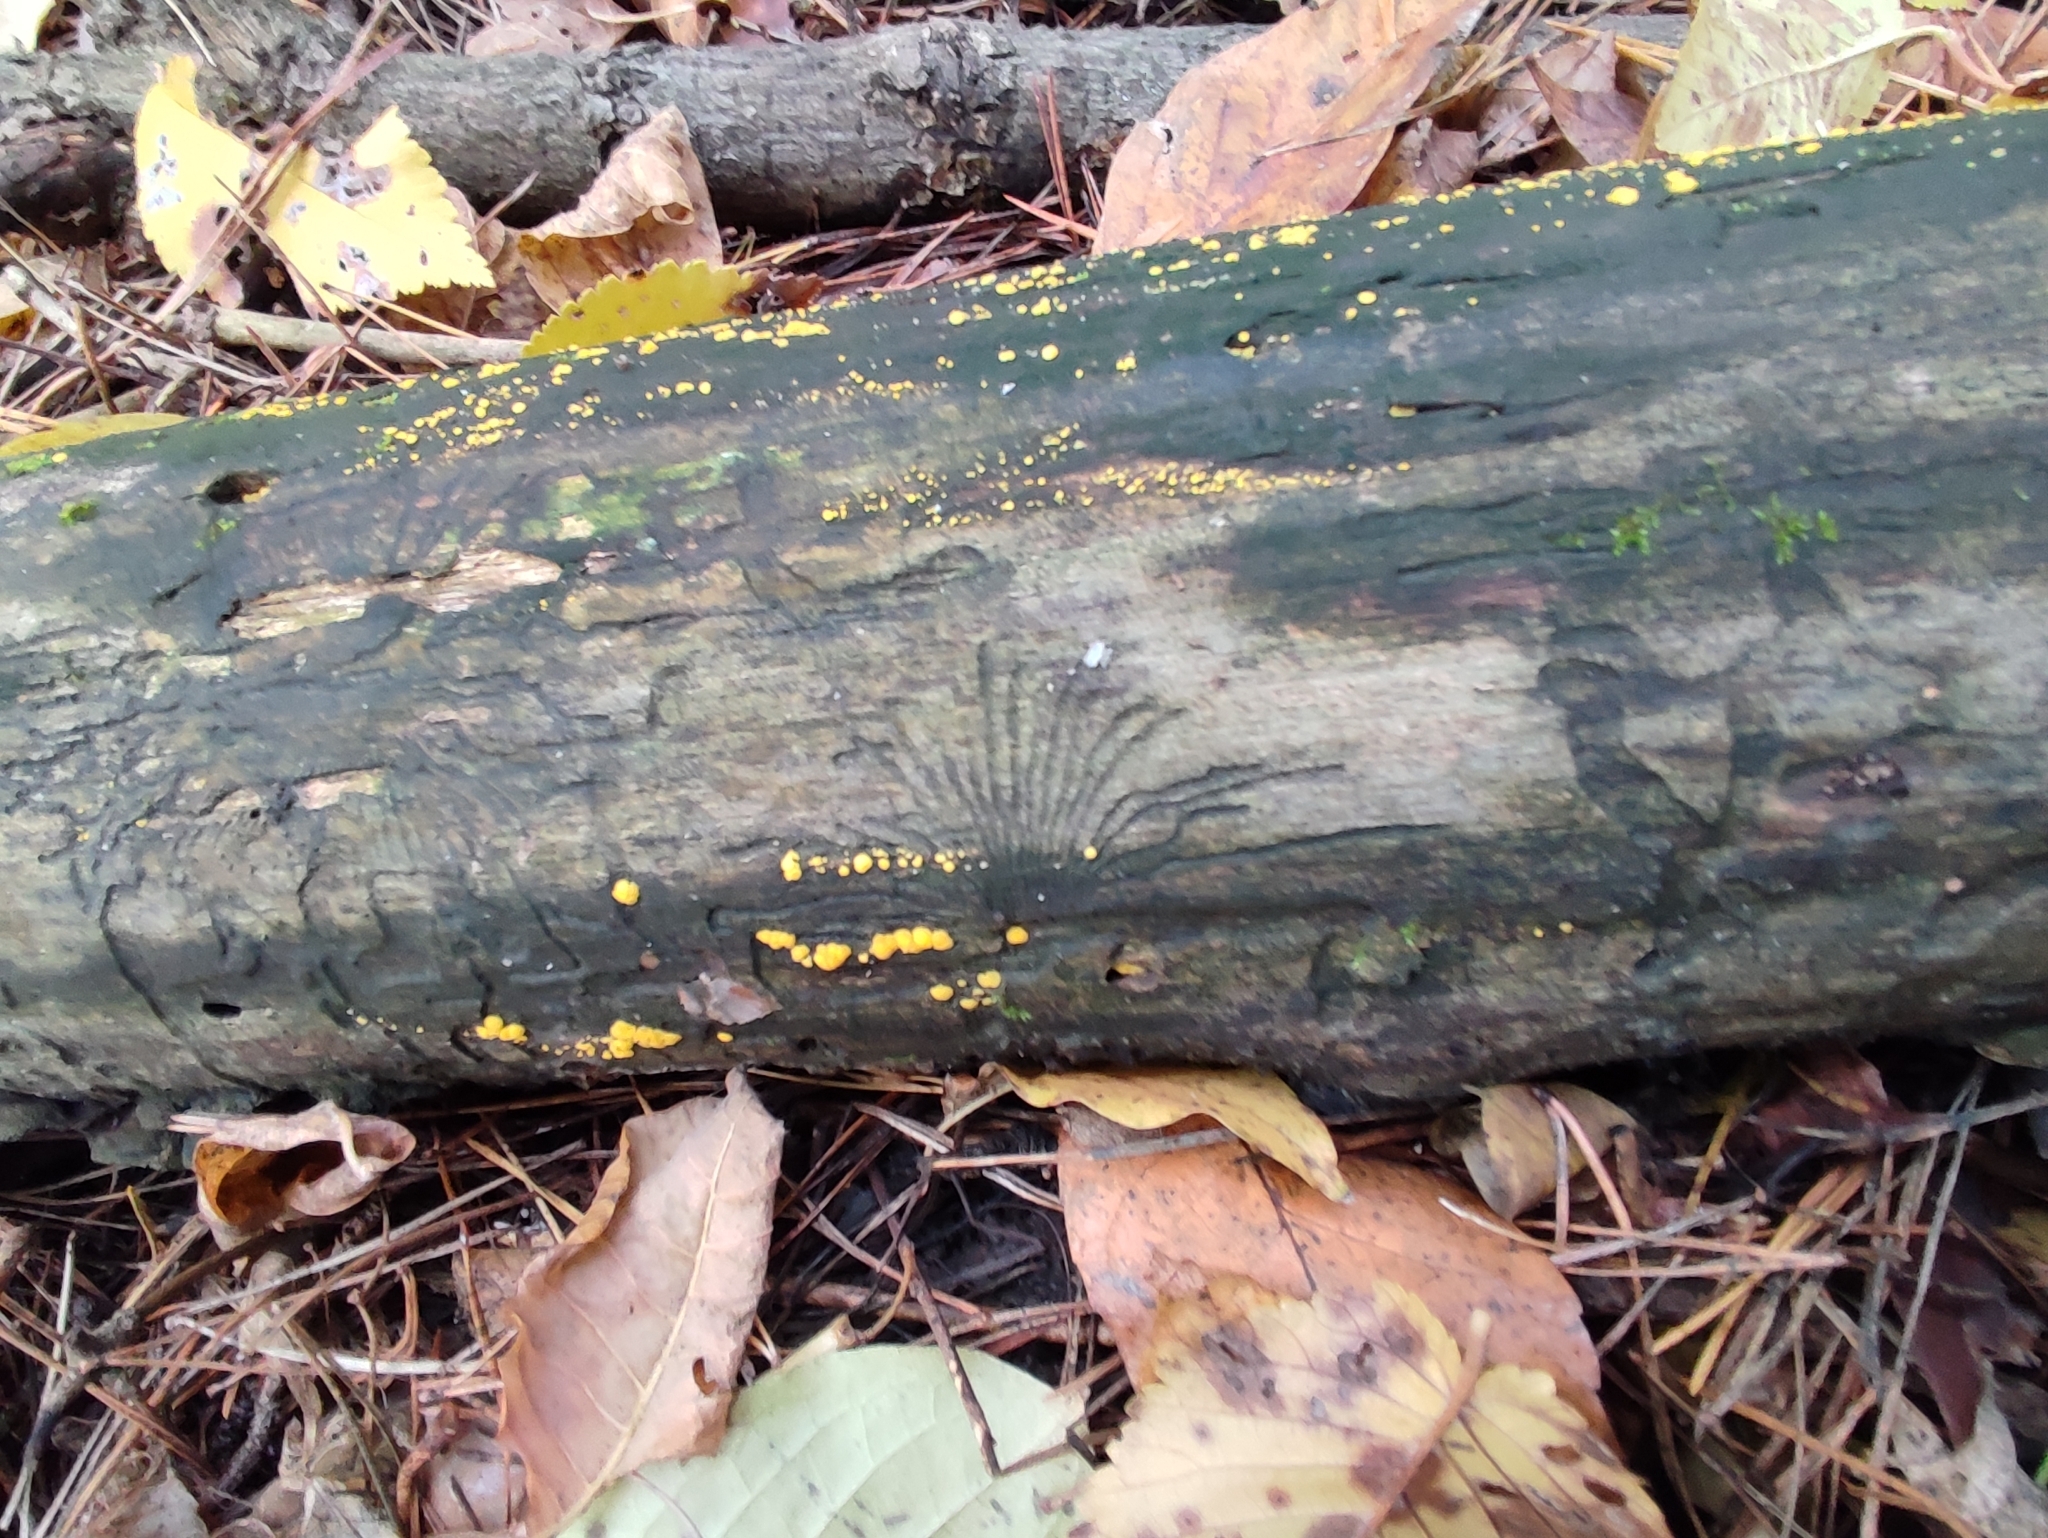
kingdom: Fungi
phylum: Ascomycota
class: Leotiomycetes
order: Helotiales
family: Pezizellaceae
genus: Calycina
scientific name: Calycina citrina
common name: Yellow fairy cups
